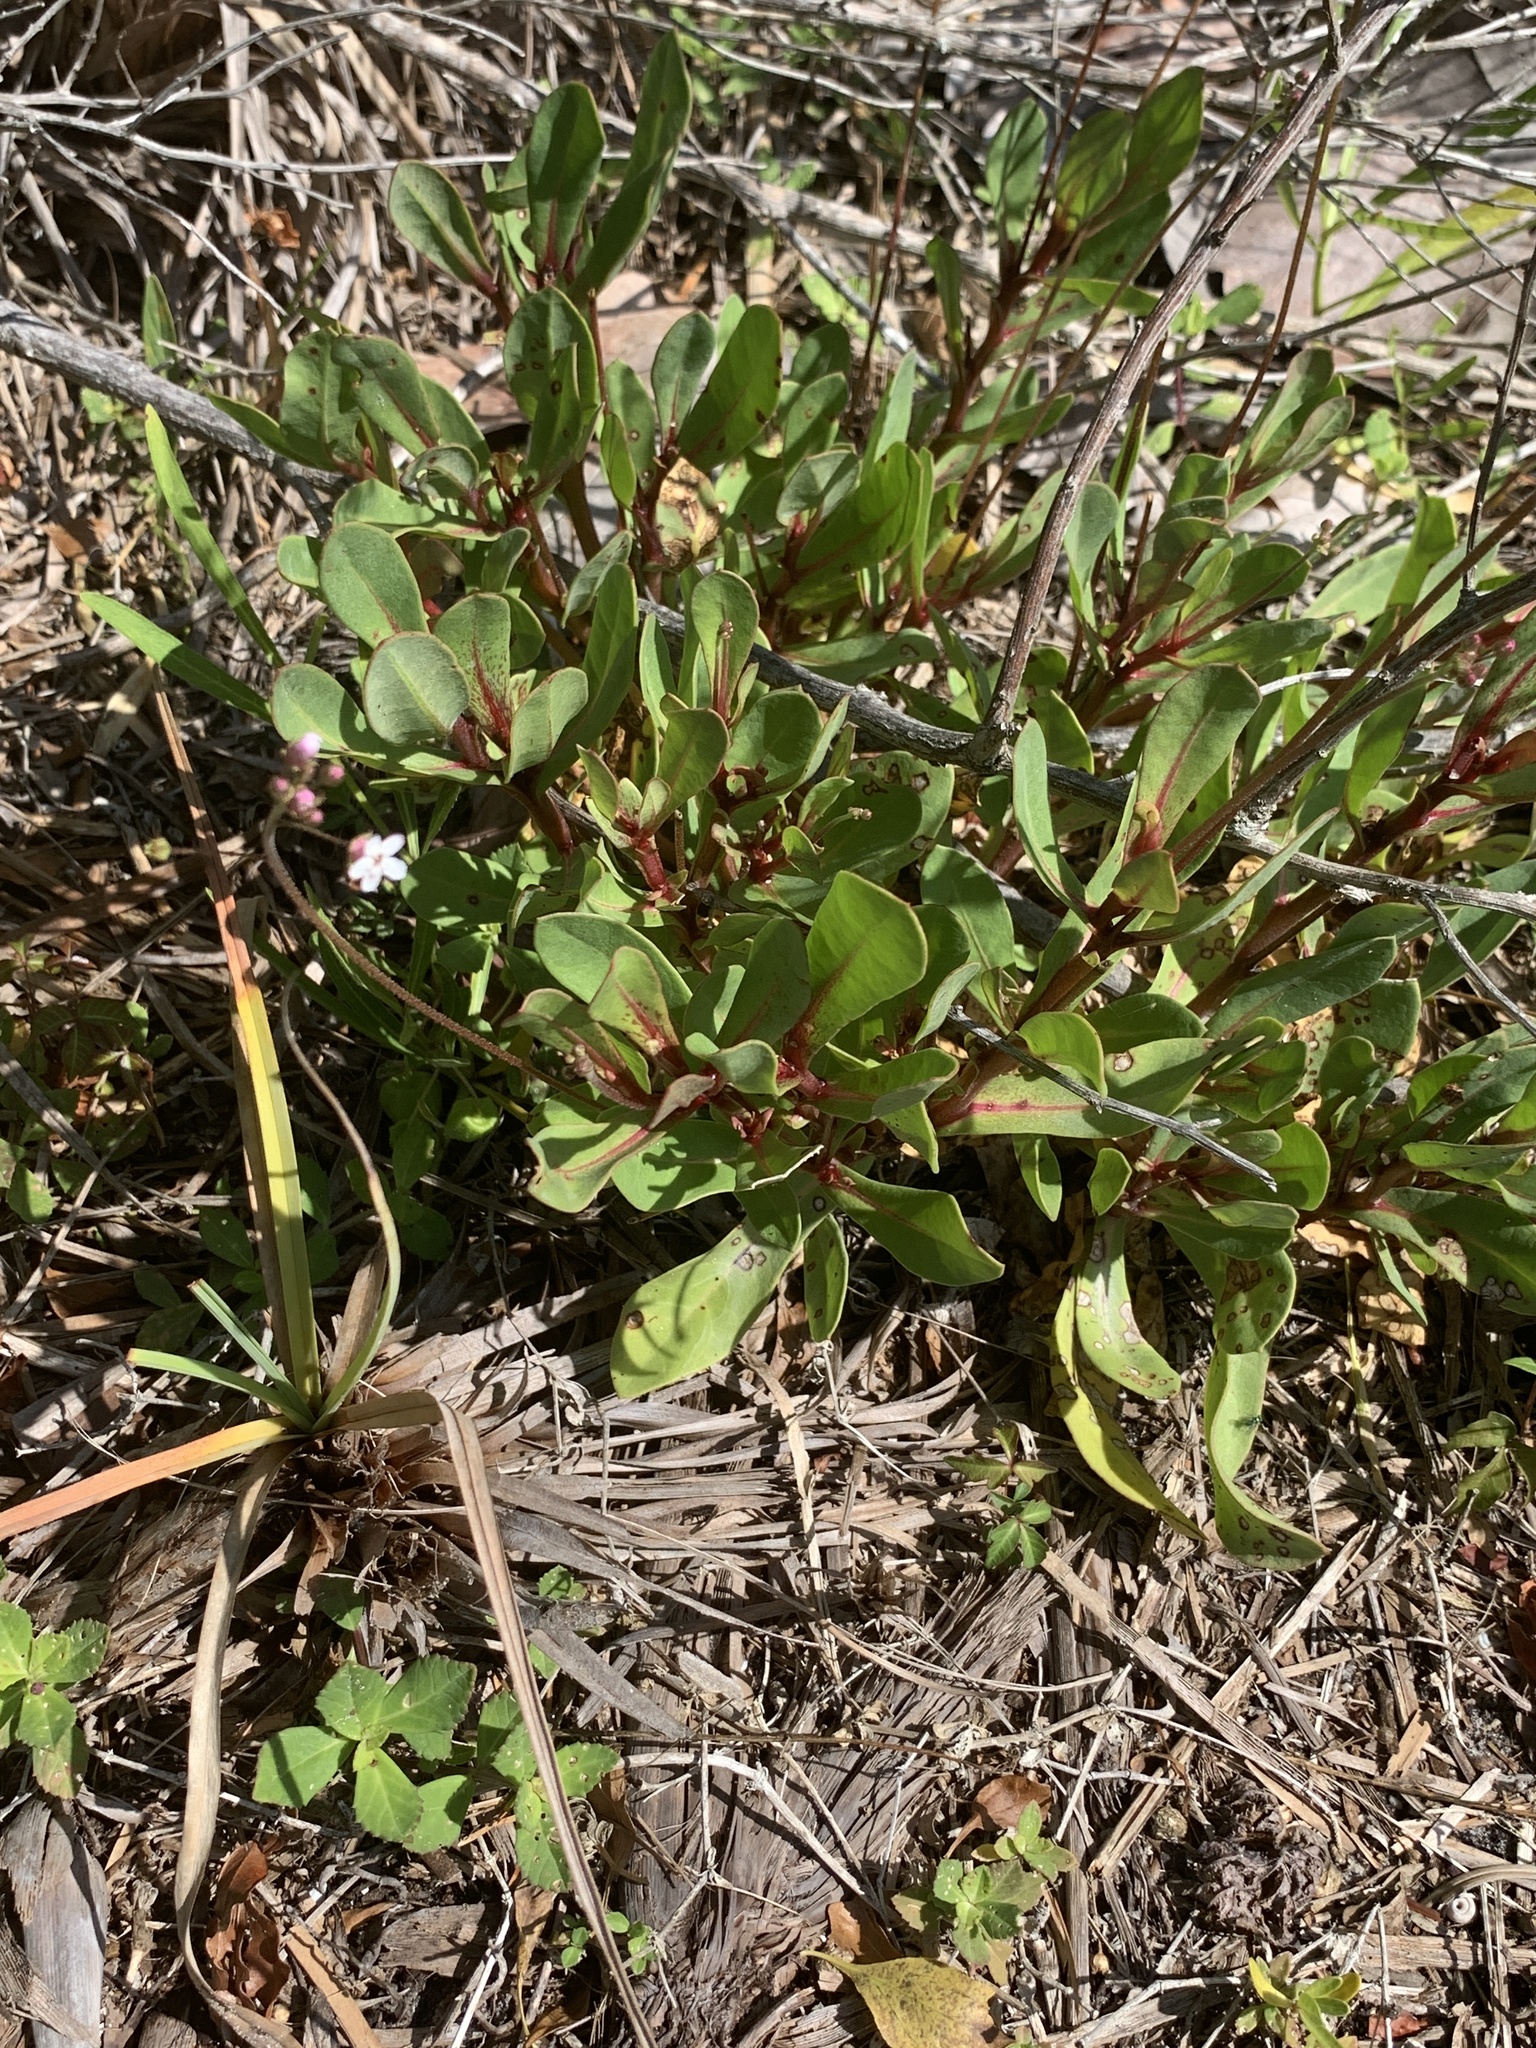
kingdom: Plantae
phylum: Tracheophyta
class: Magnoliopsida
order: Ericales
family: Primulaceae
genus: Samolus
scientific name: Samolus ebracteatus
